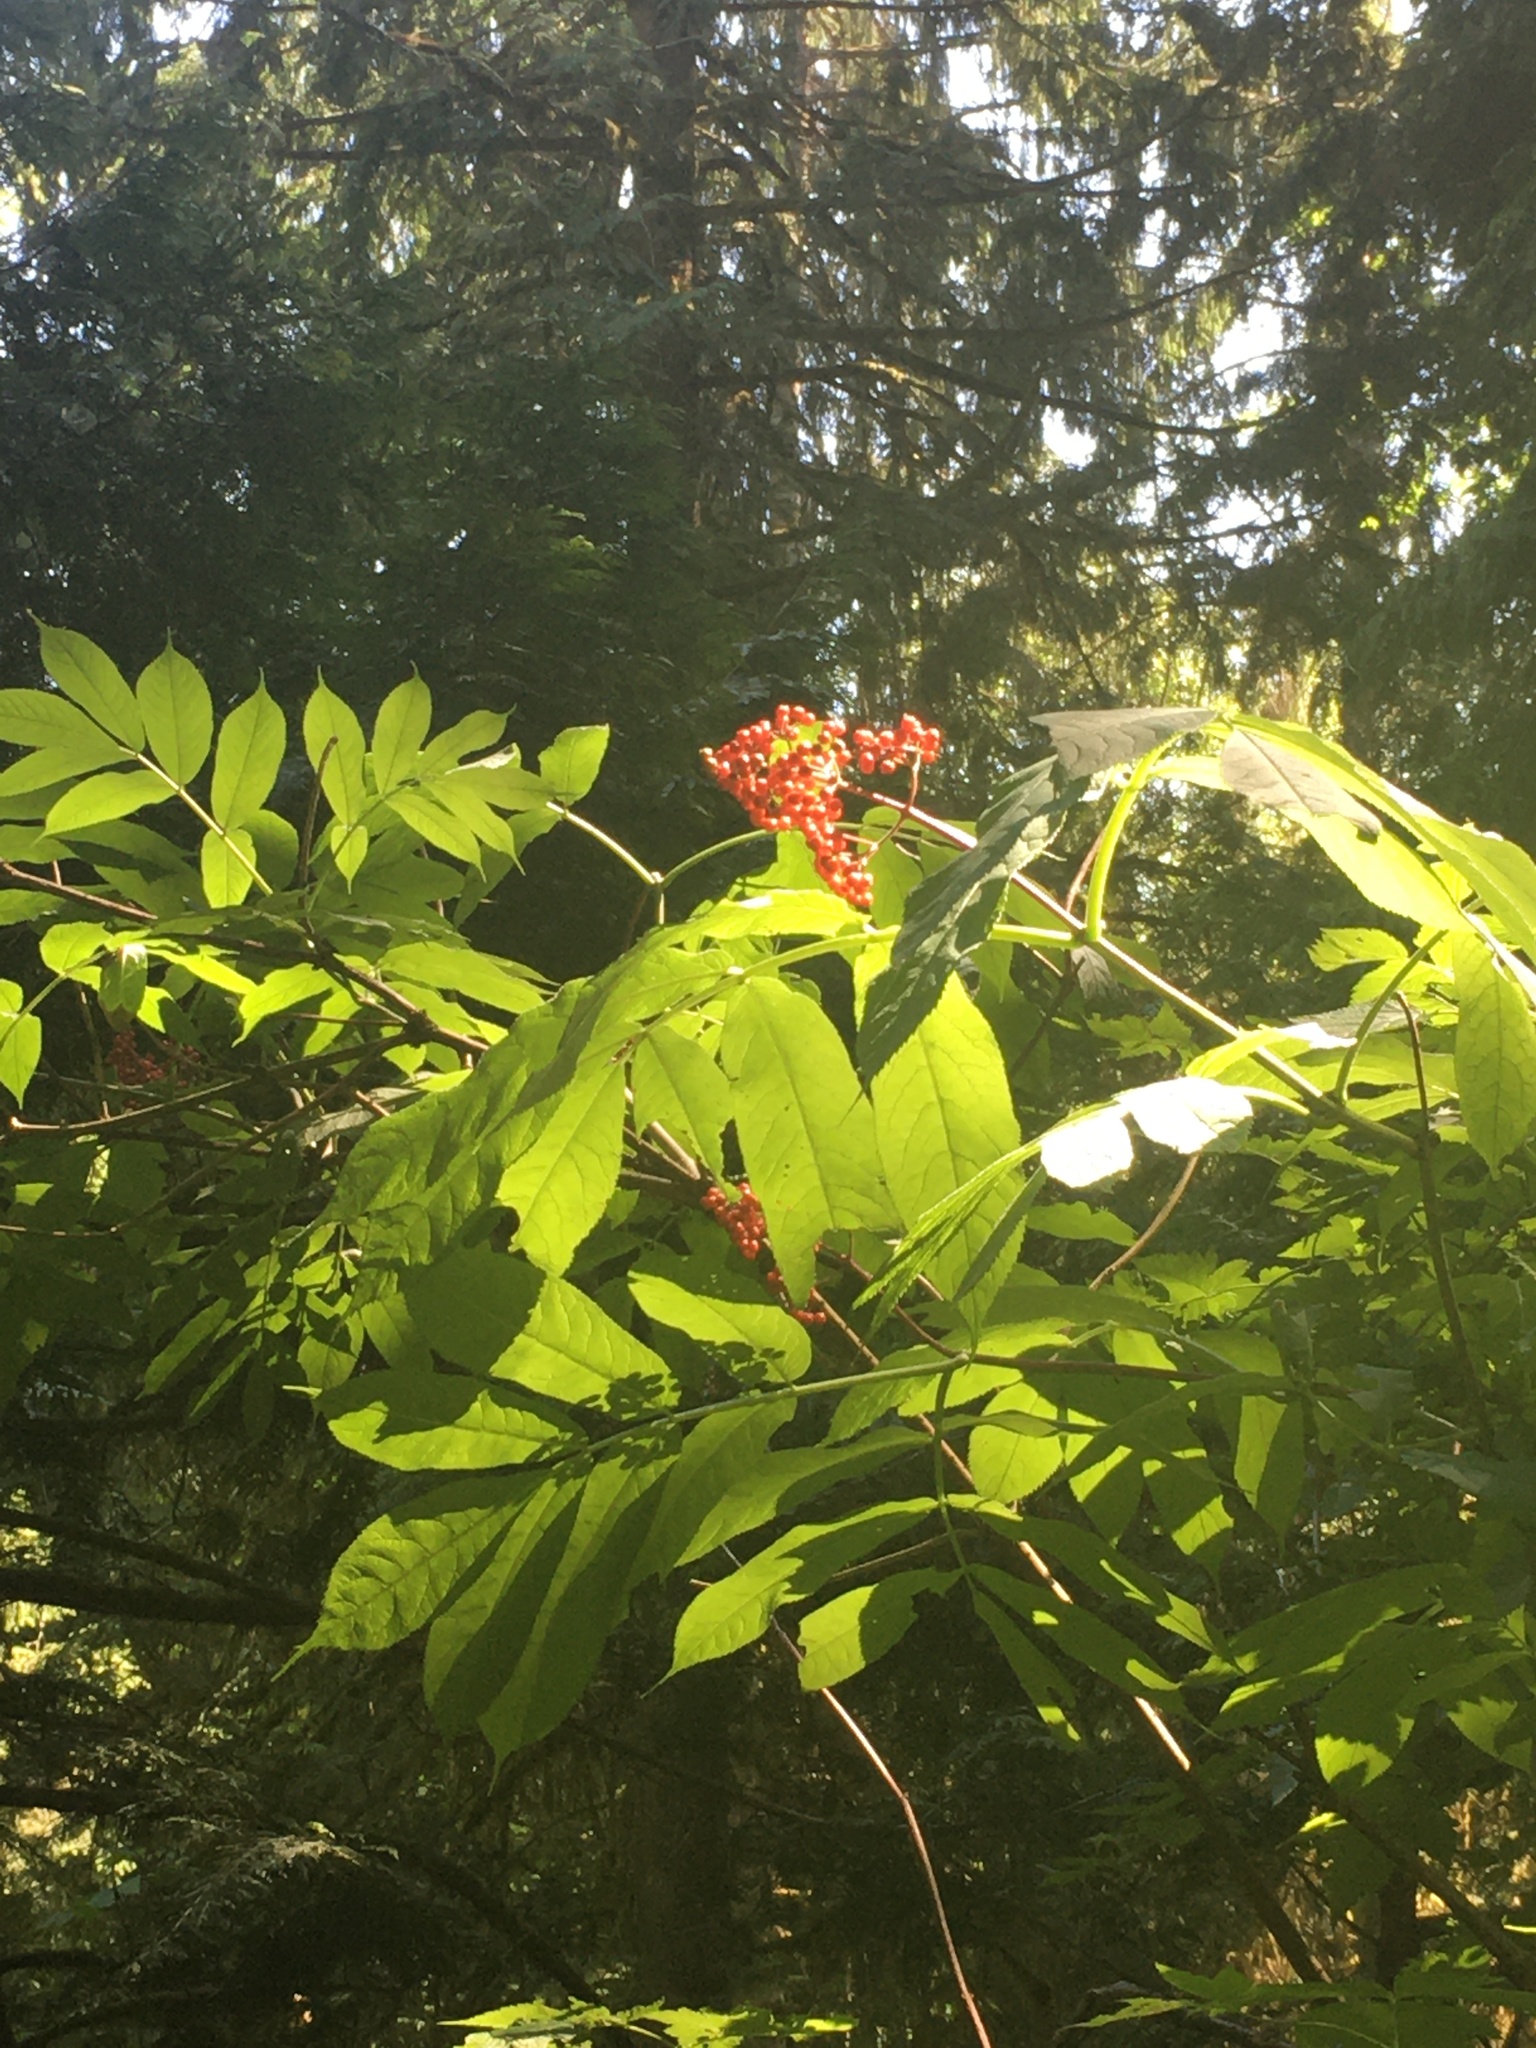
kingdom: Plantae
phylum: Tracheophyta
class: Magnoliopsida
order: Dipsacales
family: Viburnaceae
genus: Sambucus
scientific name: Sambucus racemosa
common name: Red-berried elder
